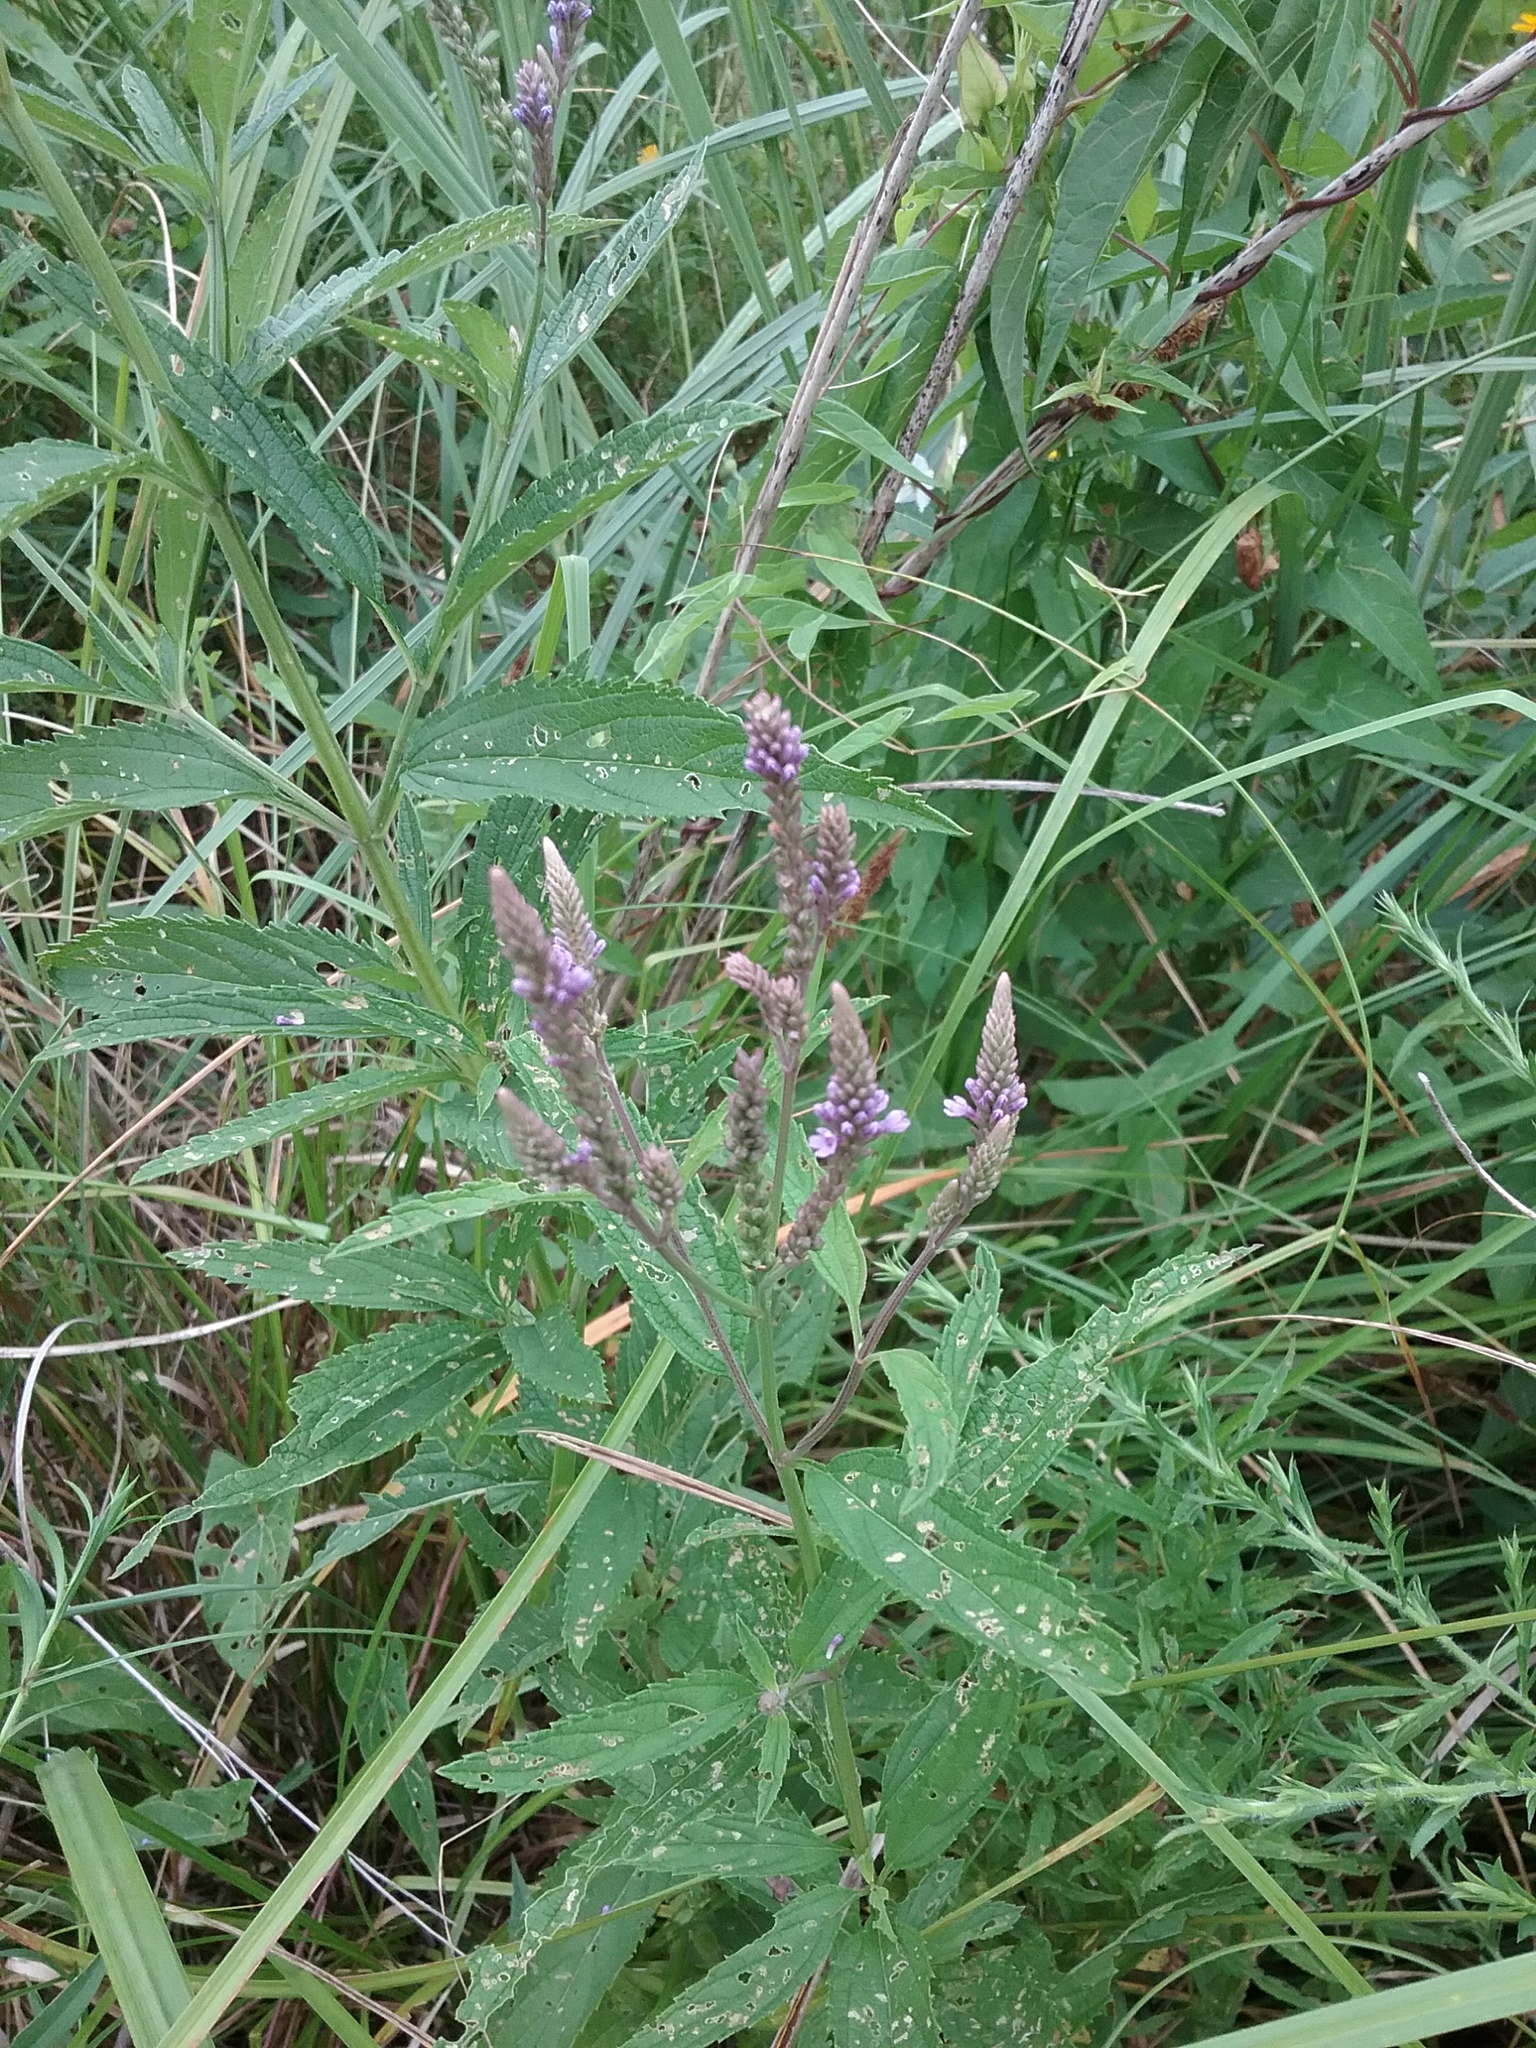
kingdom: Plantae
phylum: Tracheophyta
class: Magnoliopsida
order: Lamiales
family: Verbenaceae
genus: Verbena
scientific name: Verbena hastata
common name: American blue vervain
